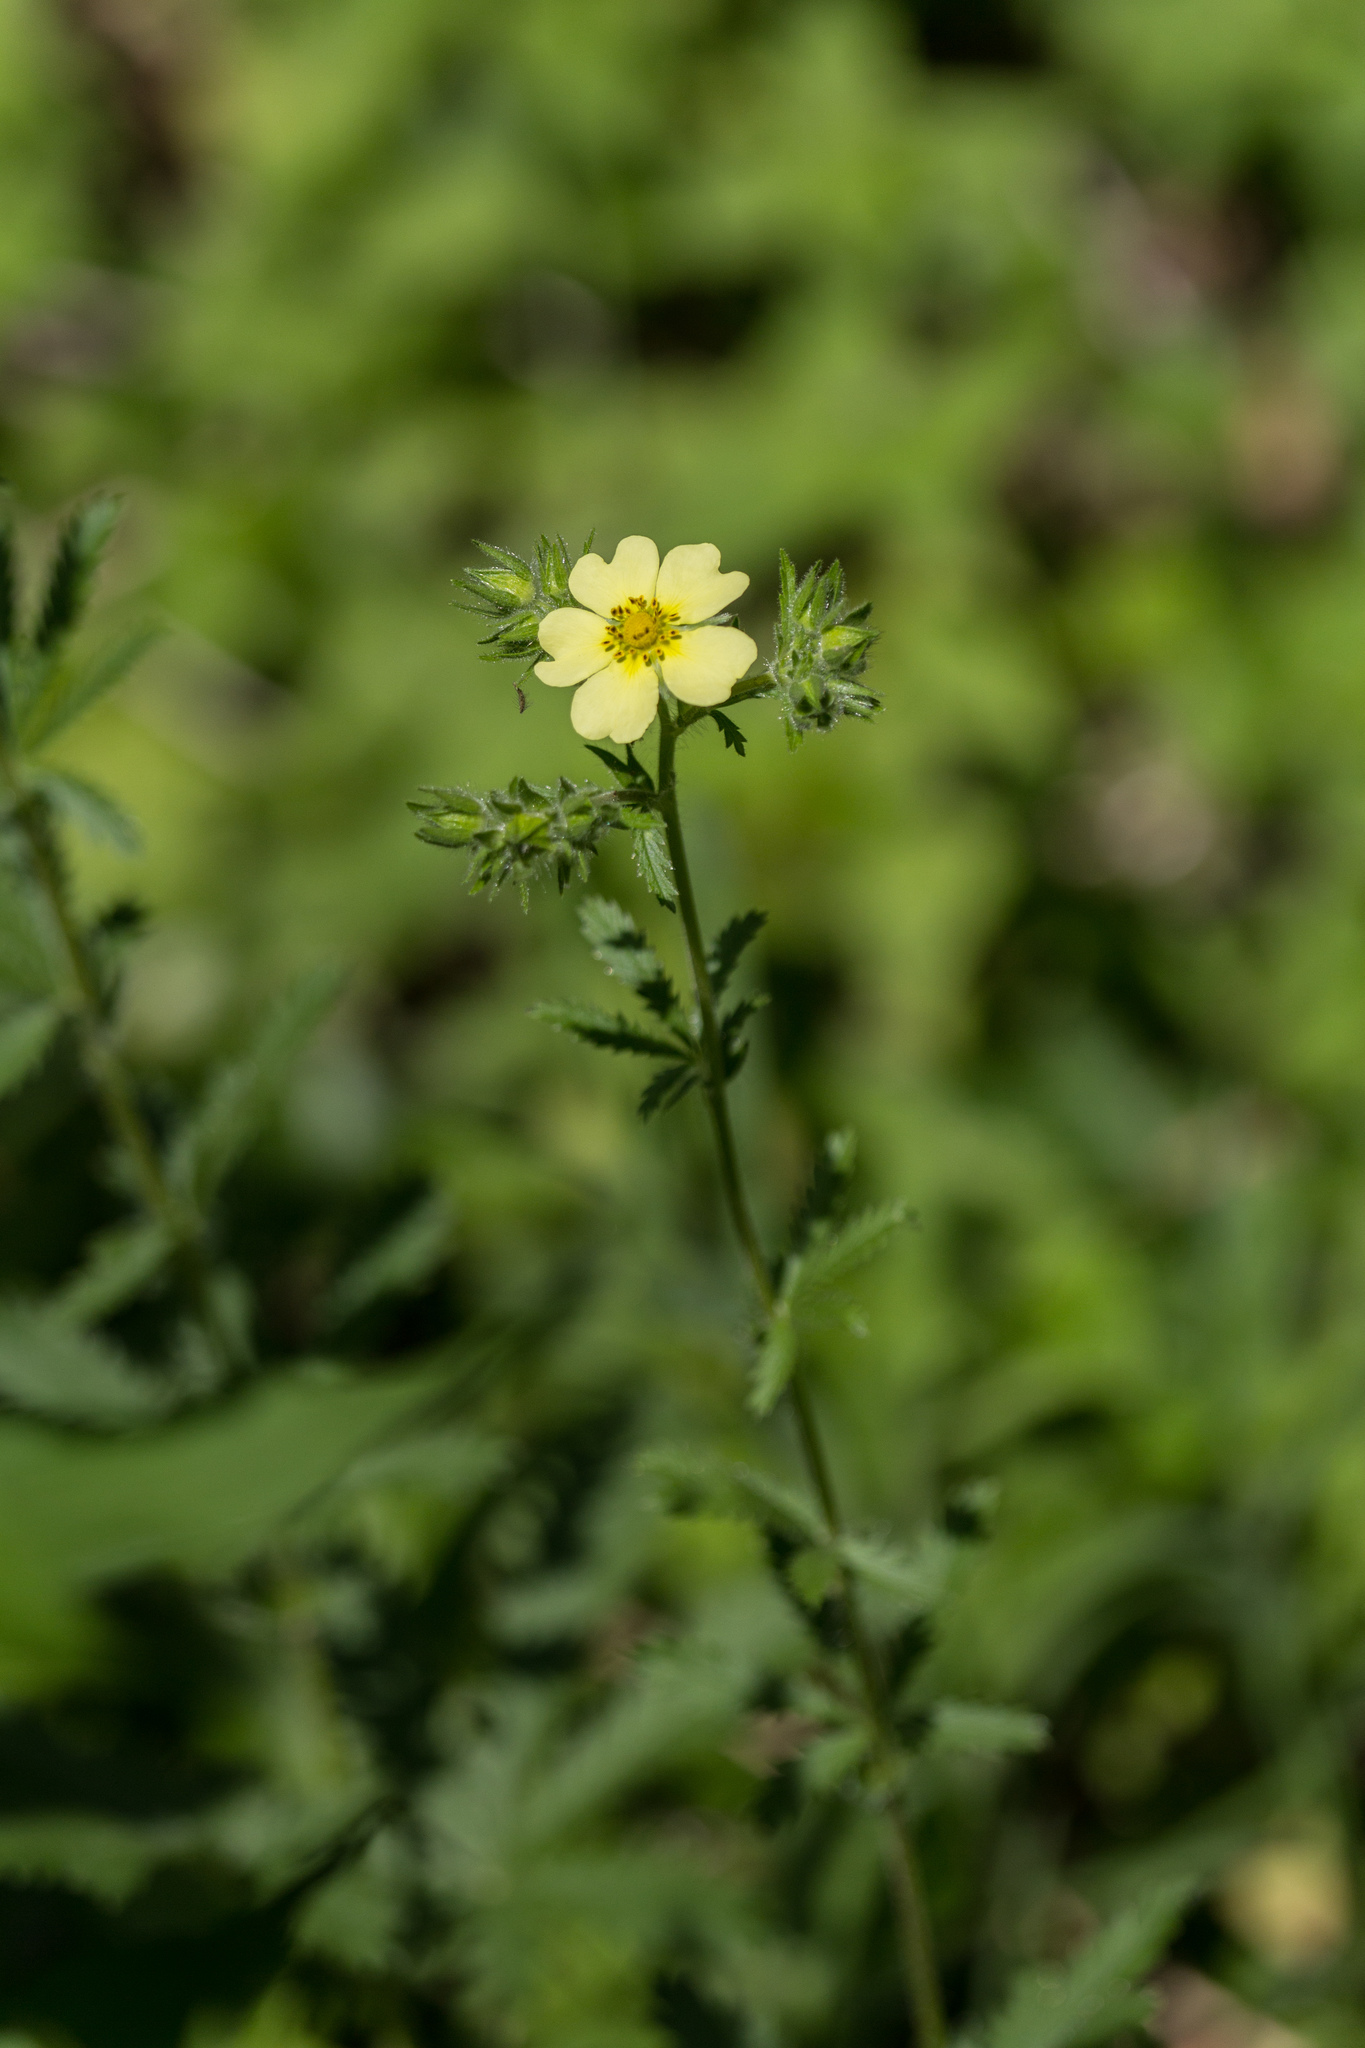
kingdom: Plantae
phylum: Tracheophyta
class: Magnoliopsida
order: Rosales
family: Rosaceae
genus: Potentilla
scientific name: Potentilla recta
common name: Sulphur cinquefoil
